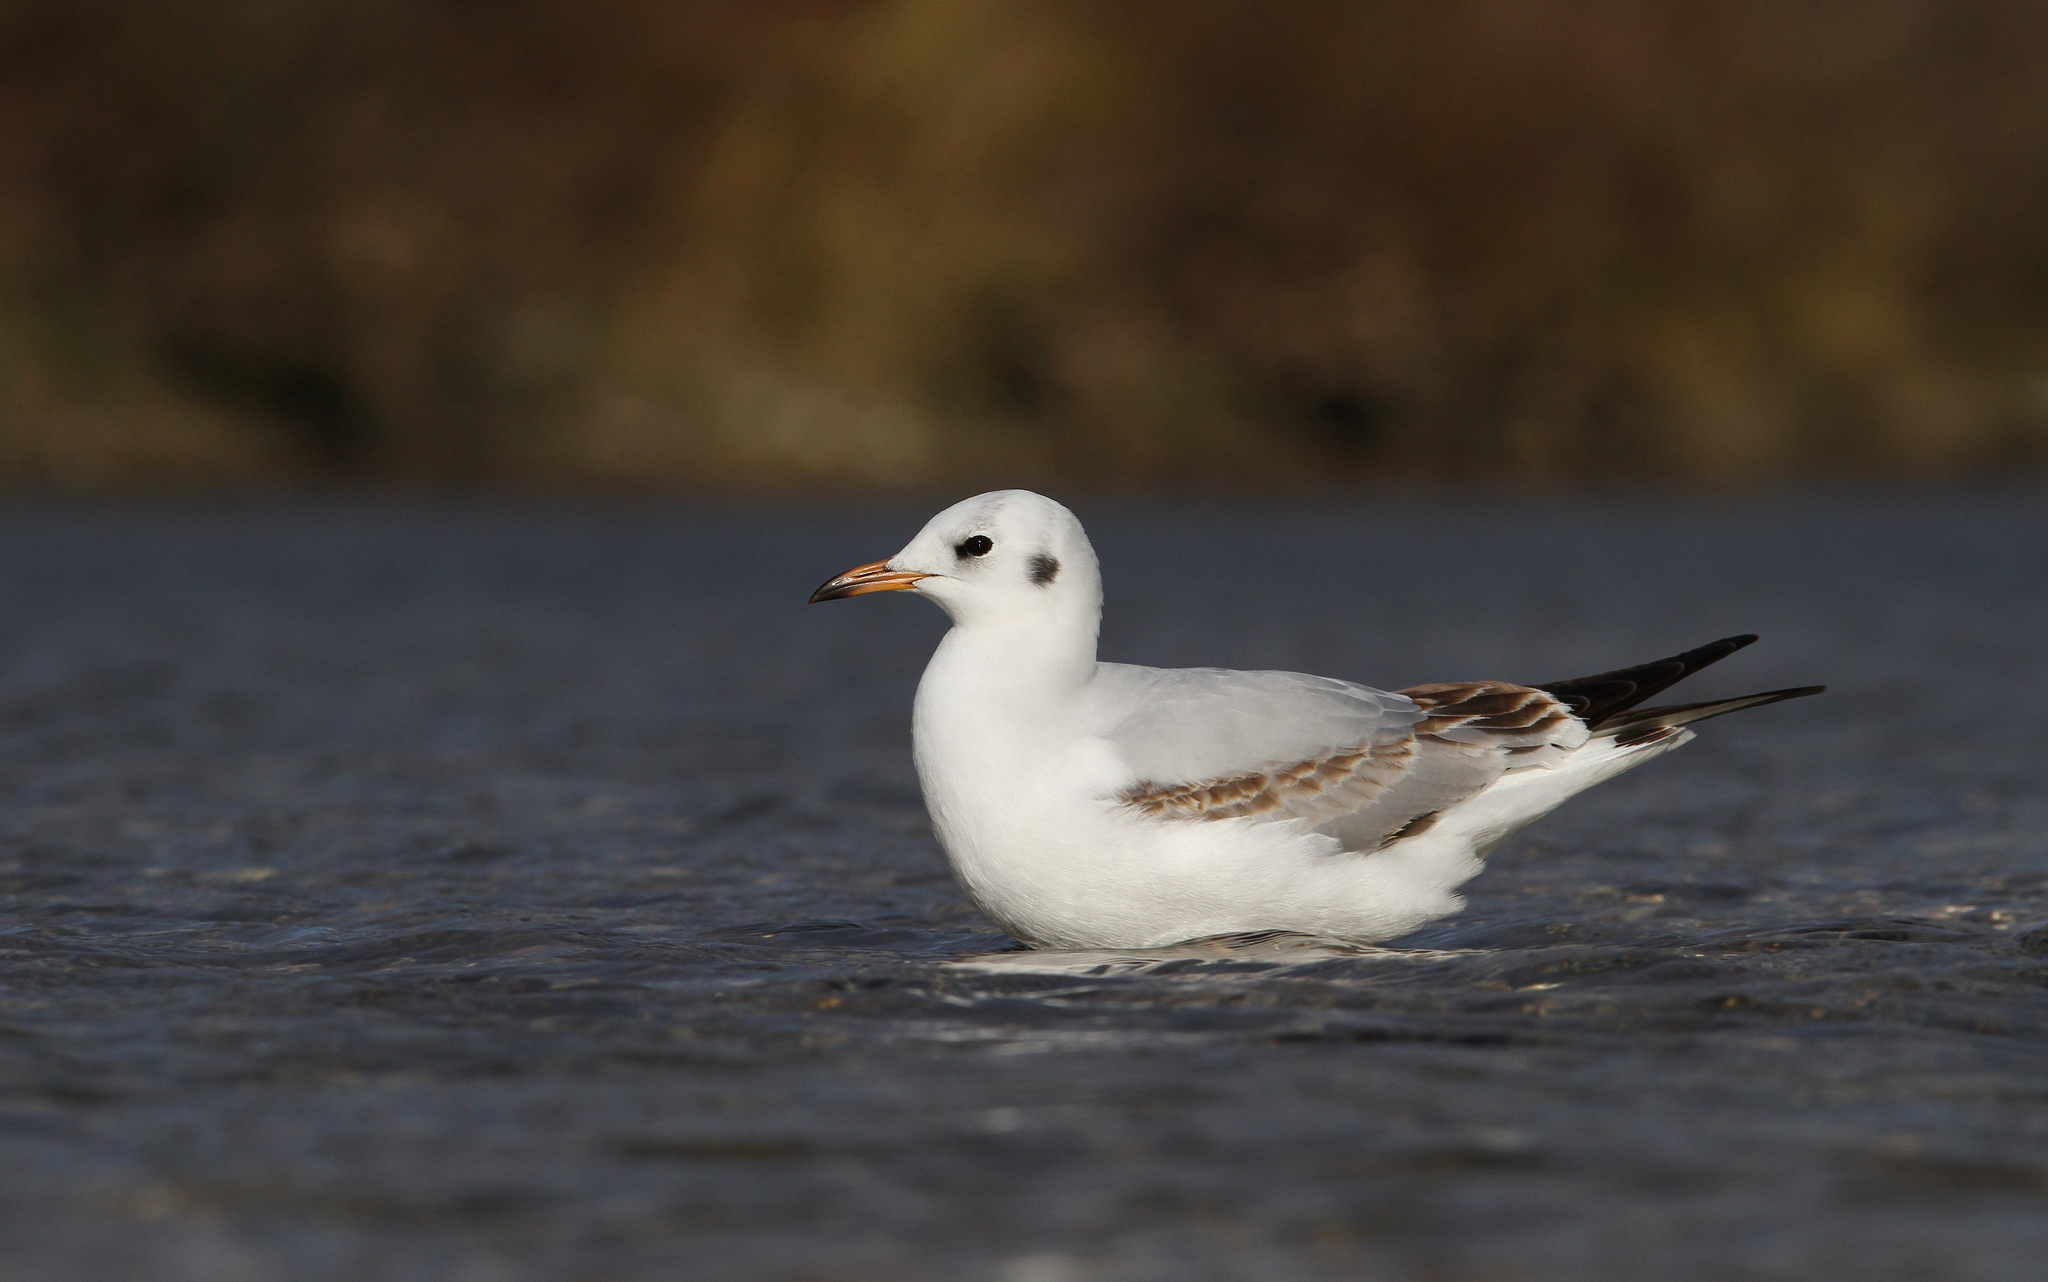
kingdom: Animalia
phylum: Chordata
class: Aves
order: Charadriiformes
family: Laridae
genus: Chroicocephalus
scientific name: Chroicocephalus ridibundus
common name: Black-headed gull
